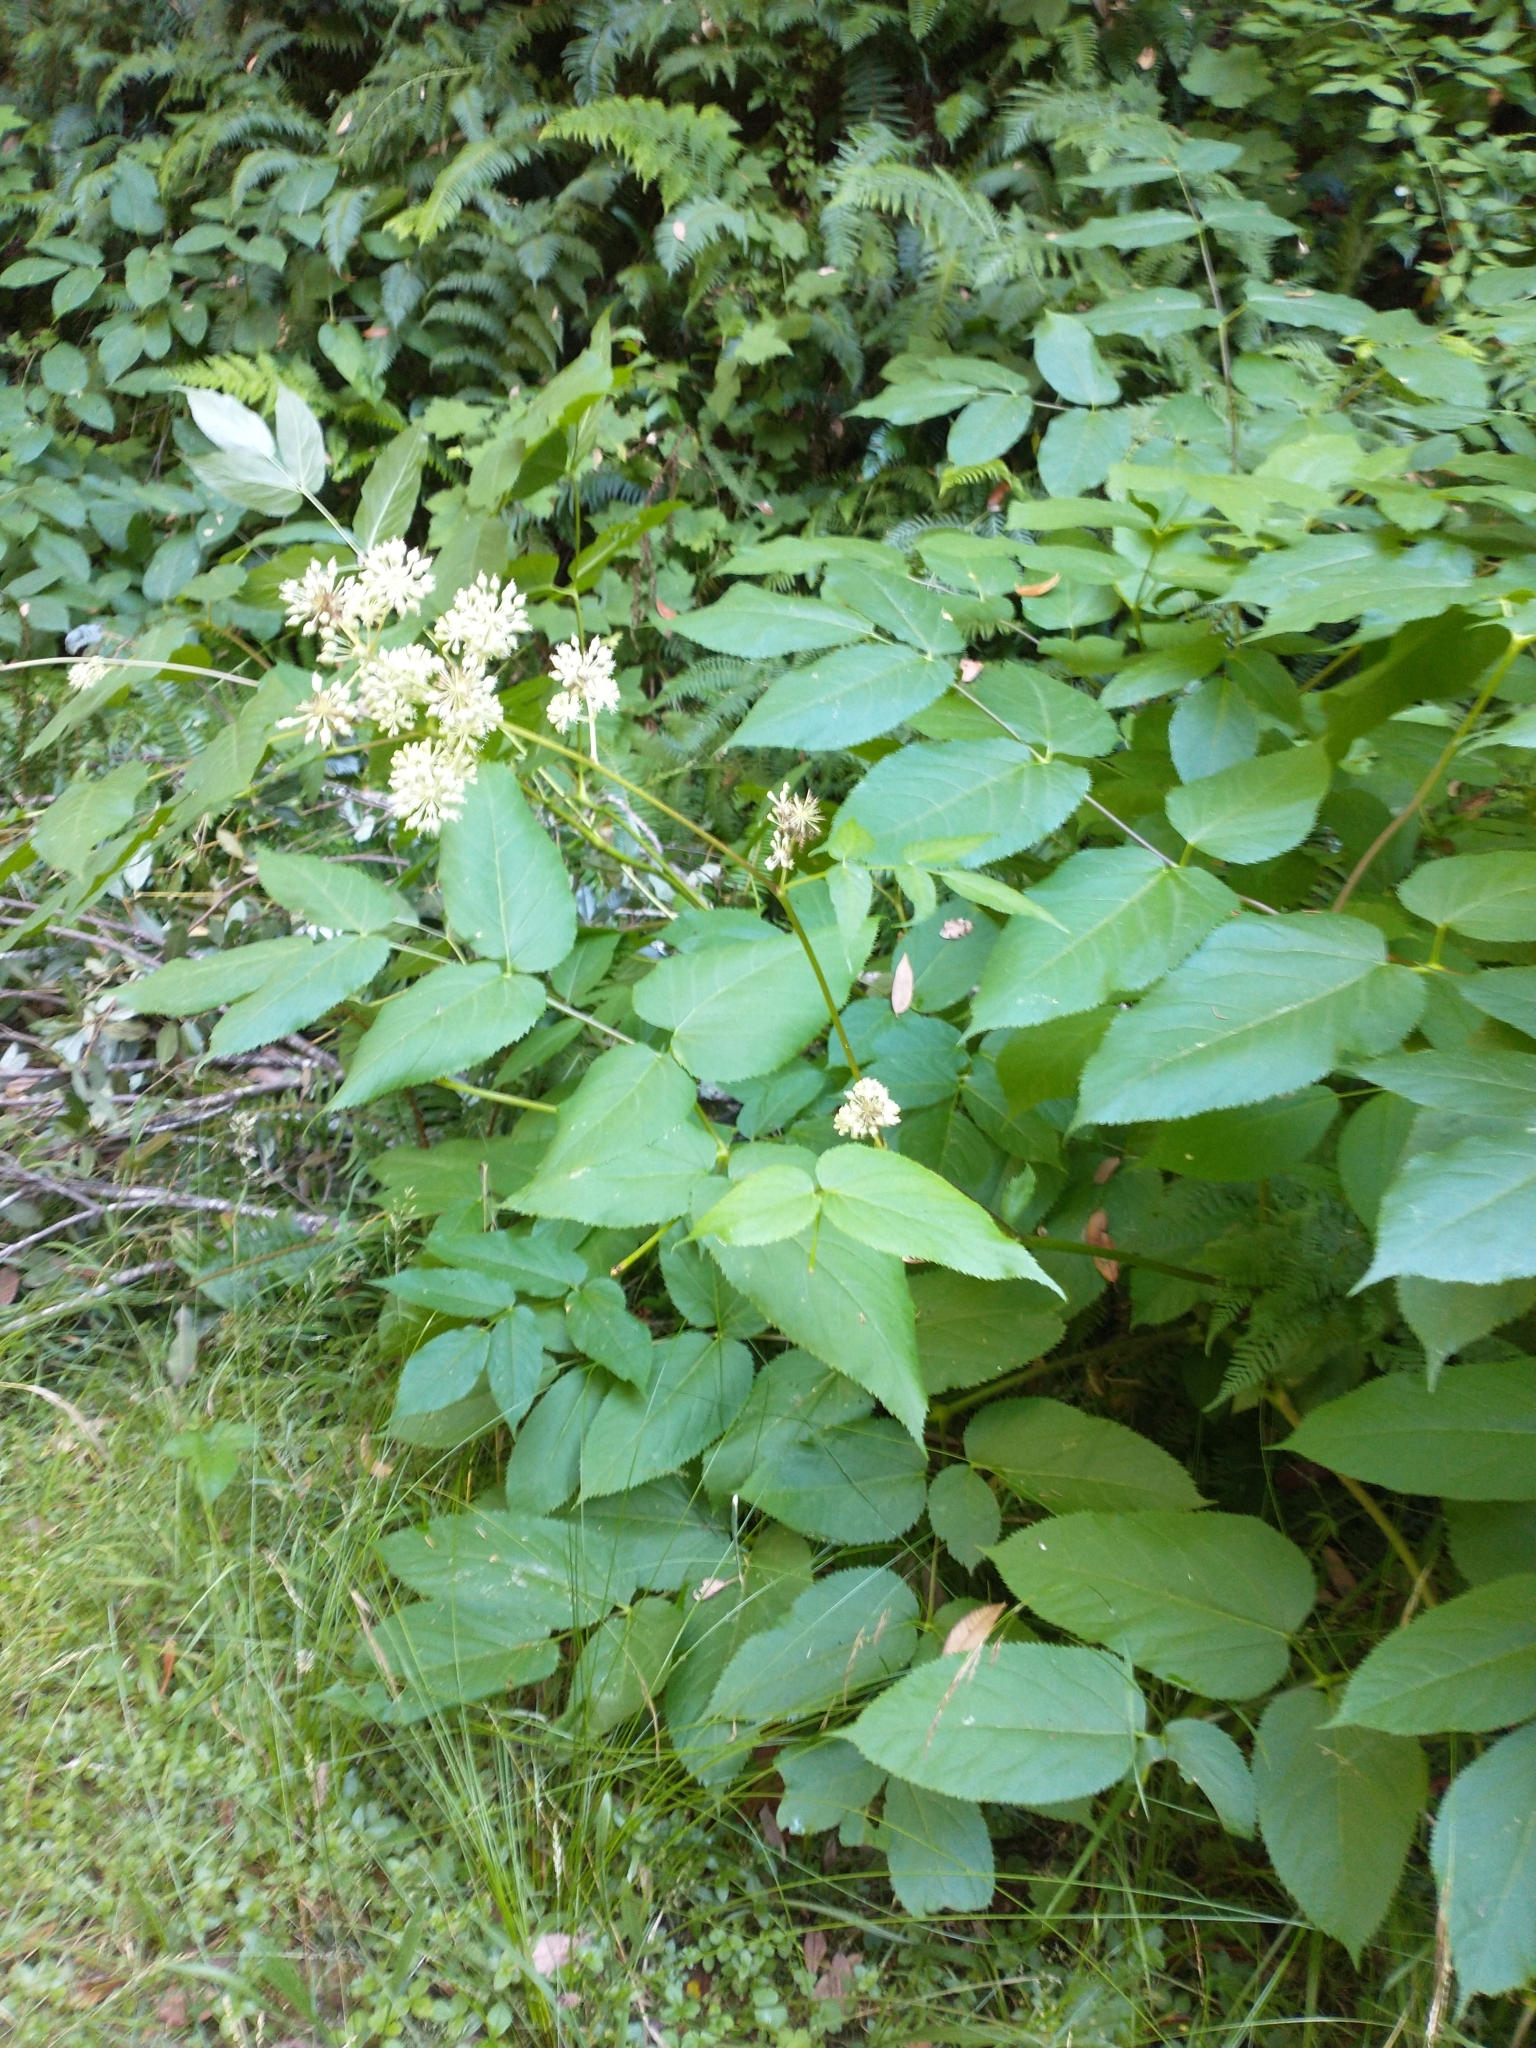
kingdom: Plantae
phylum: Tracheophyta
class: Magnoliopsida
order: Apiales
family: Araliaceae
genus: Aralia
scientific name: Aralia californica
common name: California-ginseng
